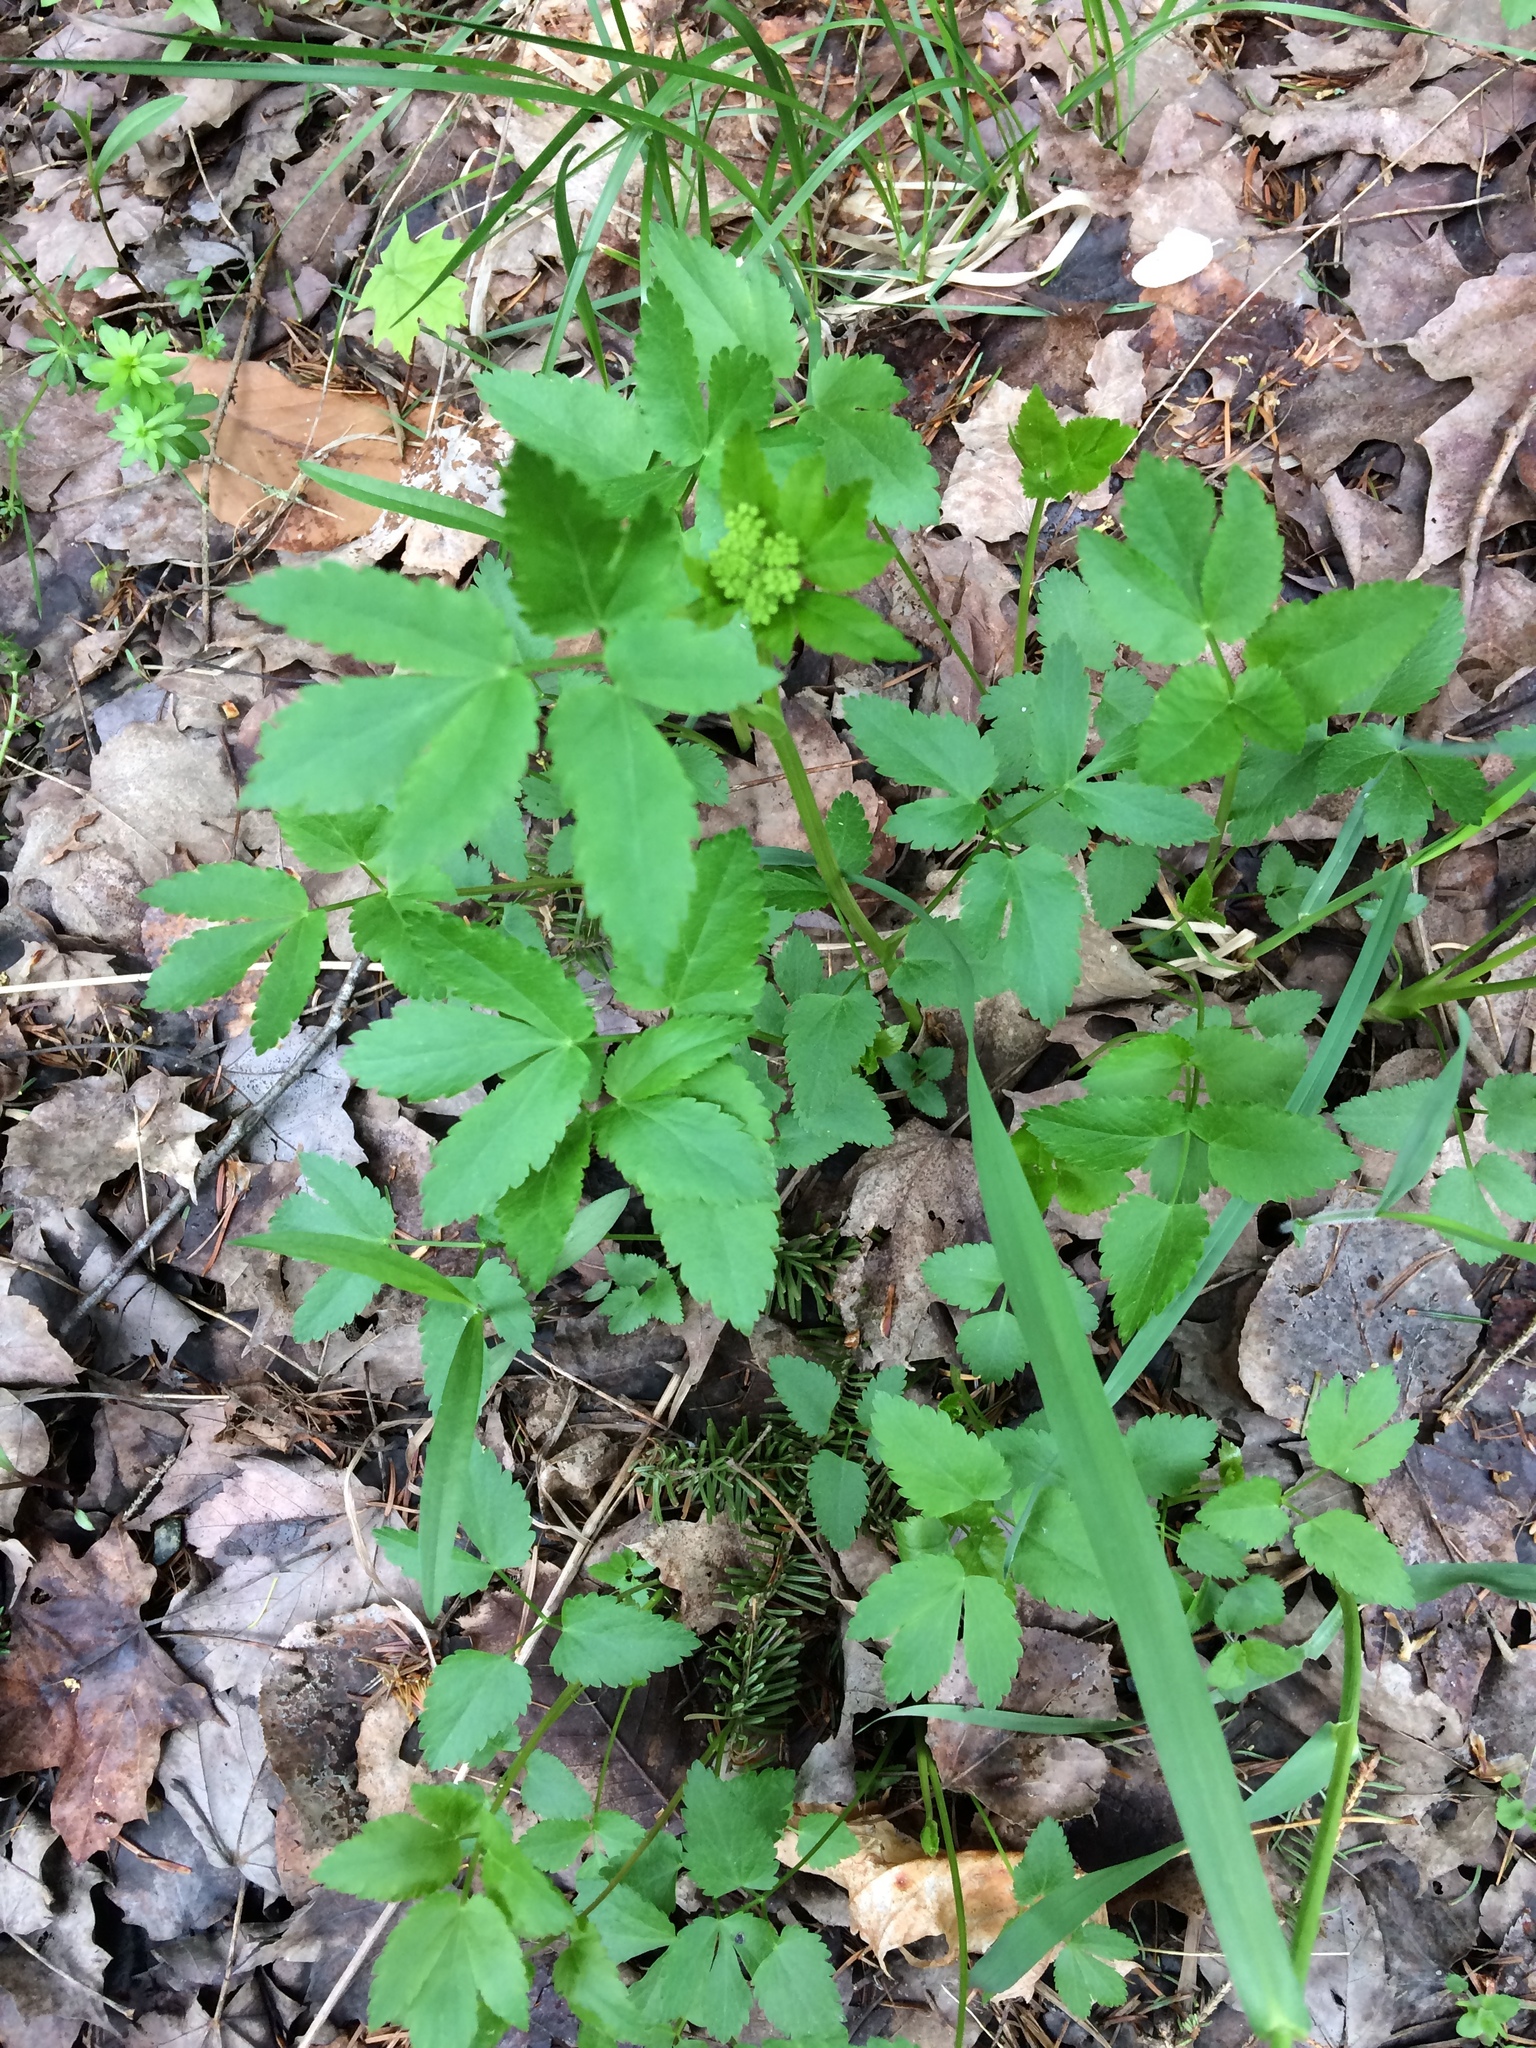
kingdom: Plantae
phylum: Tracheophyta
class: Magnoliopsida
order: Apiales
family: Apiaceae
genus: Zizia
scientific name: Zizia aurea
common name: Golden alexanders
